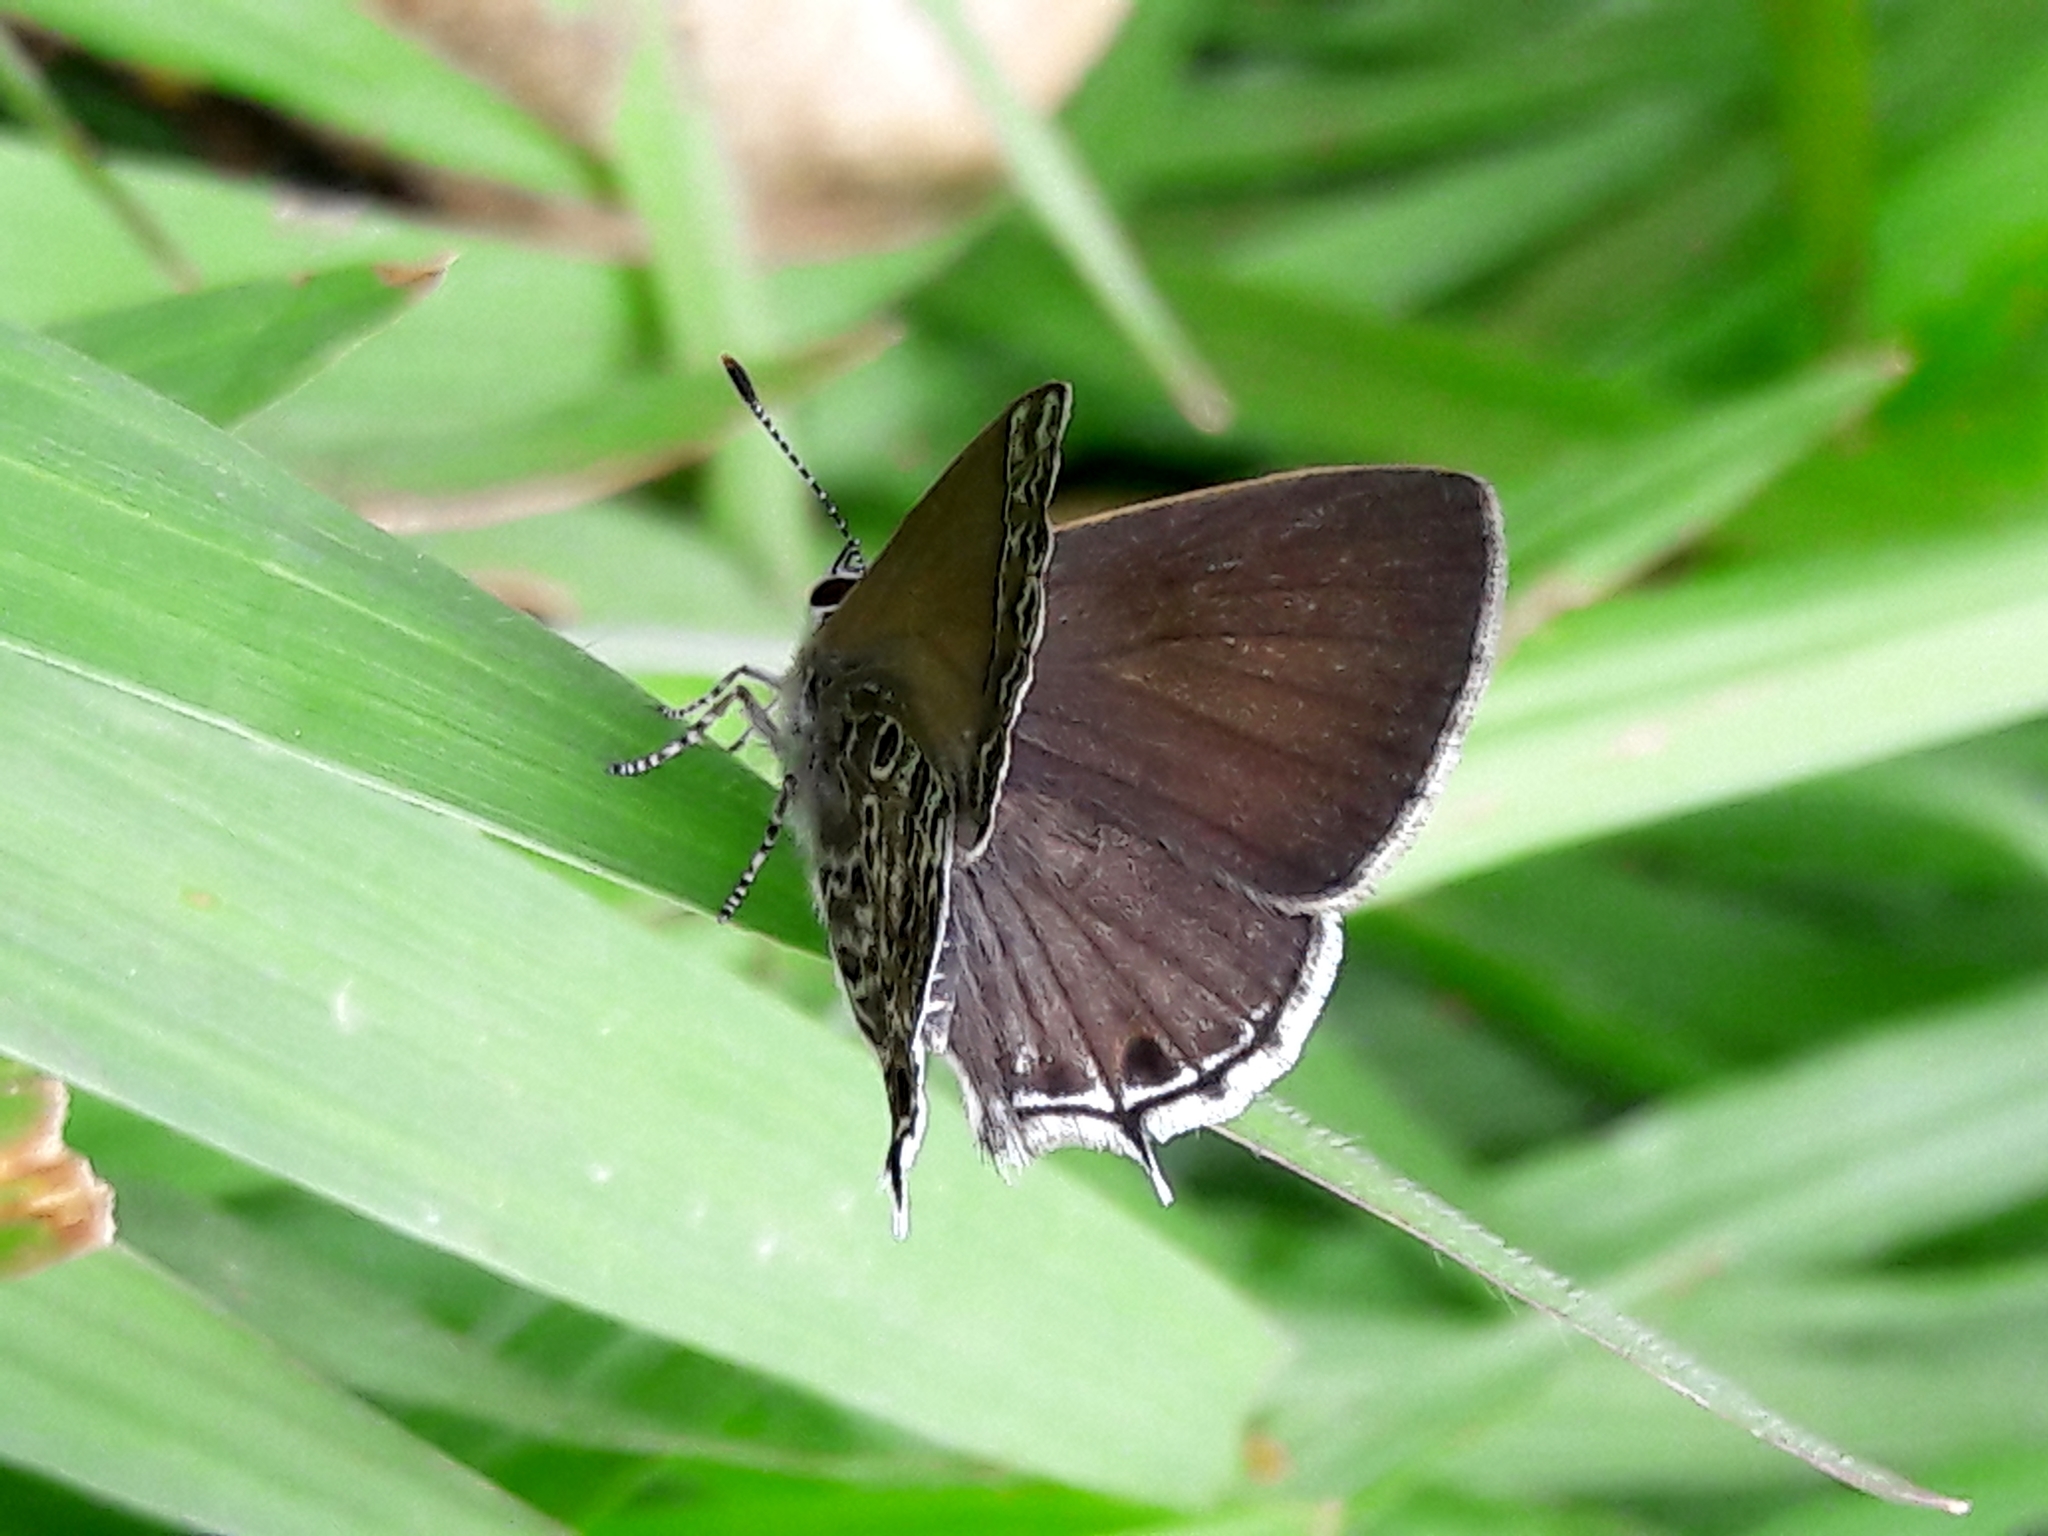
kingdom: Animalia
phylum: Arthropoda
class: Insecta
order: Lepidoptera
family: Lycaenidae
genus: Strymon
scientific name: Strymon astiocha
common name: Gray-spotted scrub-hairstreak
